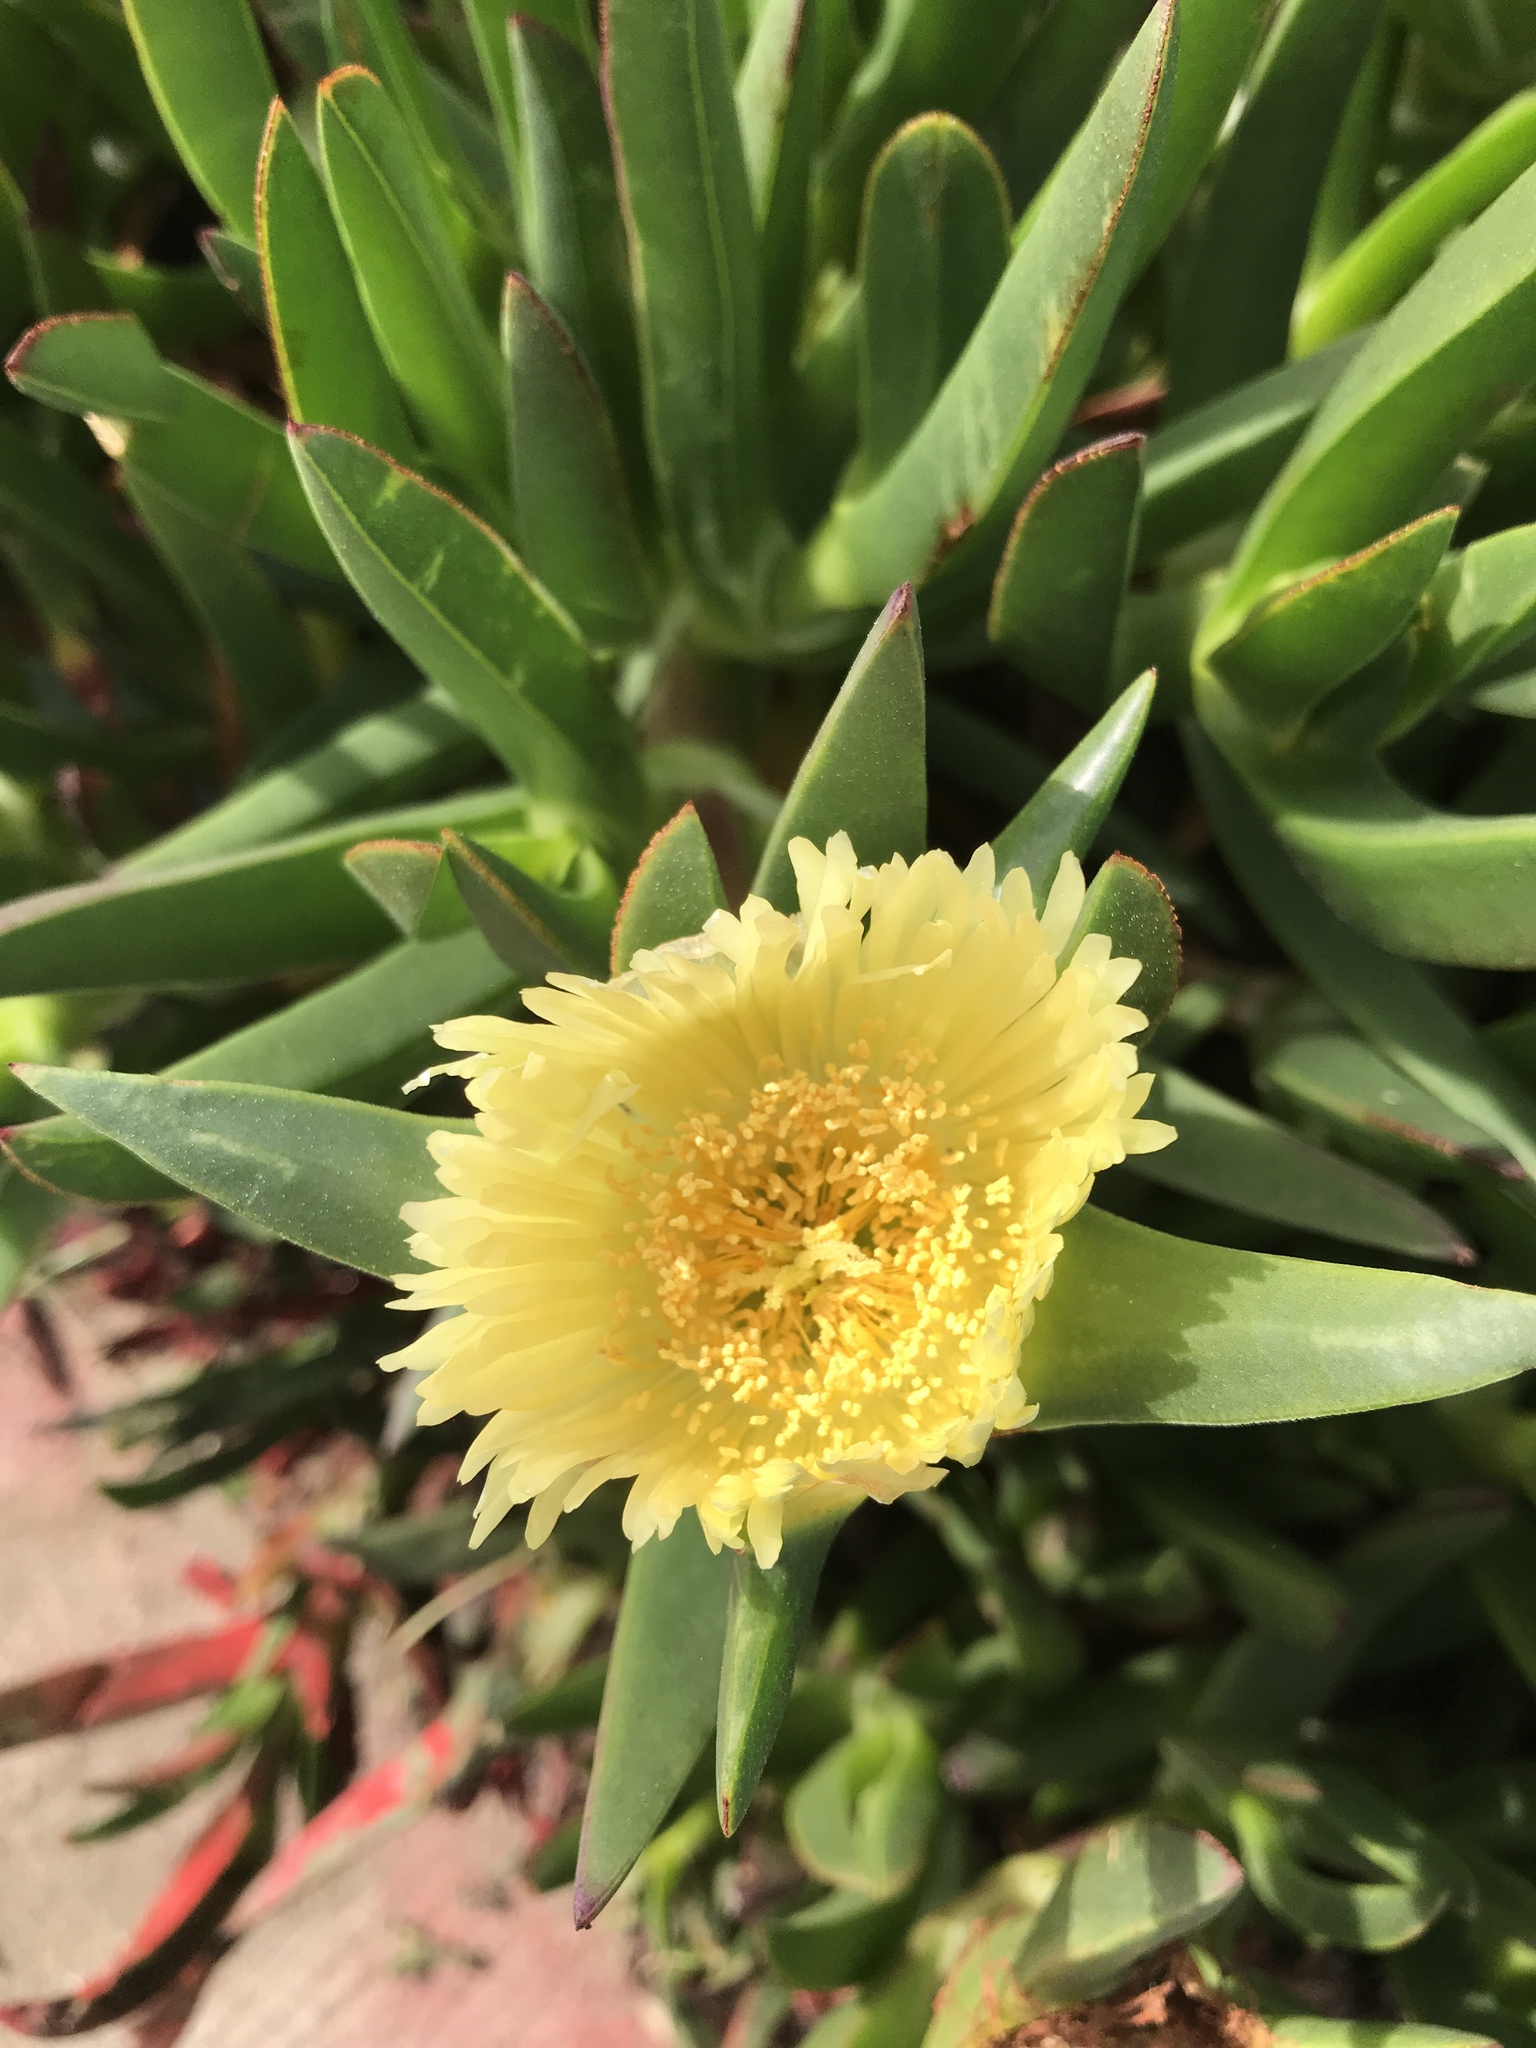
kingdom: Plantae
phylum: Tracheophyta
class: Magnoliopsida
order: Caryophyllales
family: Aizoaceae
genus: Carpobrotus
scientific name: Carpobrotus edulis
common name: Hottentot-fig
